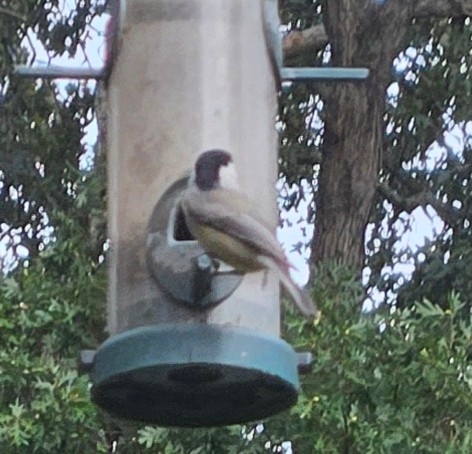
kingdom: Animalia
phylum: Chordata
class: Aves
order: Passeriformes
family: Paridae
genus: Poecile
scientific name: Poecile carolinensis
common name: Carolina chickadee
